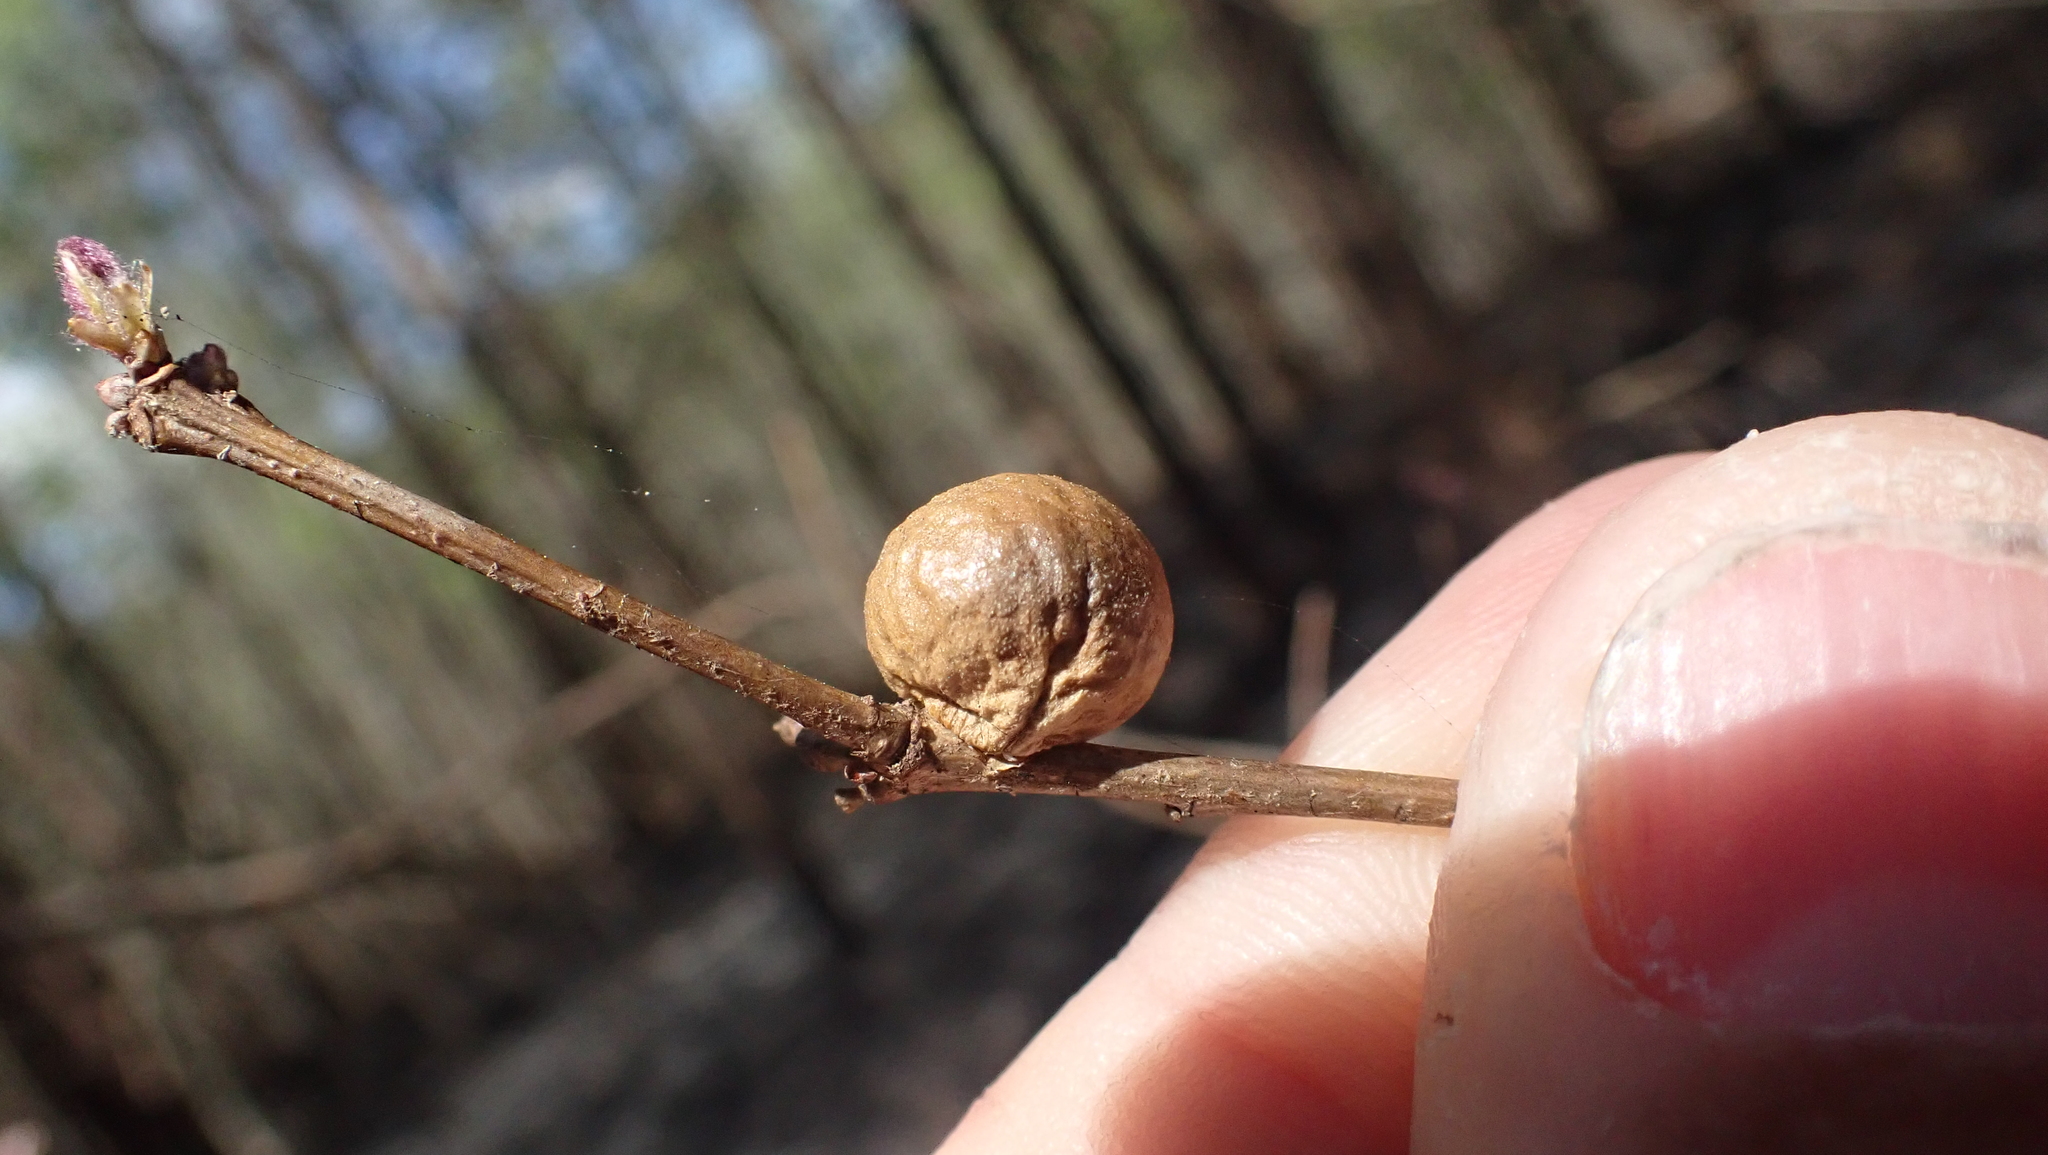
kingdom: Animalia
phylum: Arthropoda
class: Insecta
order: Hymenoptera
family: Cynipidae
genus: Disholcaspis
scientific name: Disholcaspis quercusglobulus
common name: Round bullet gall wasp
